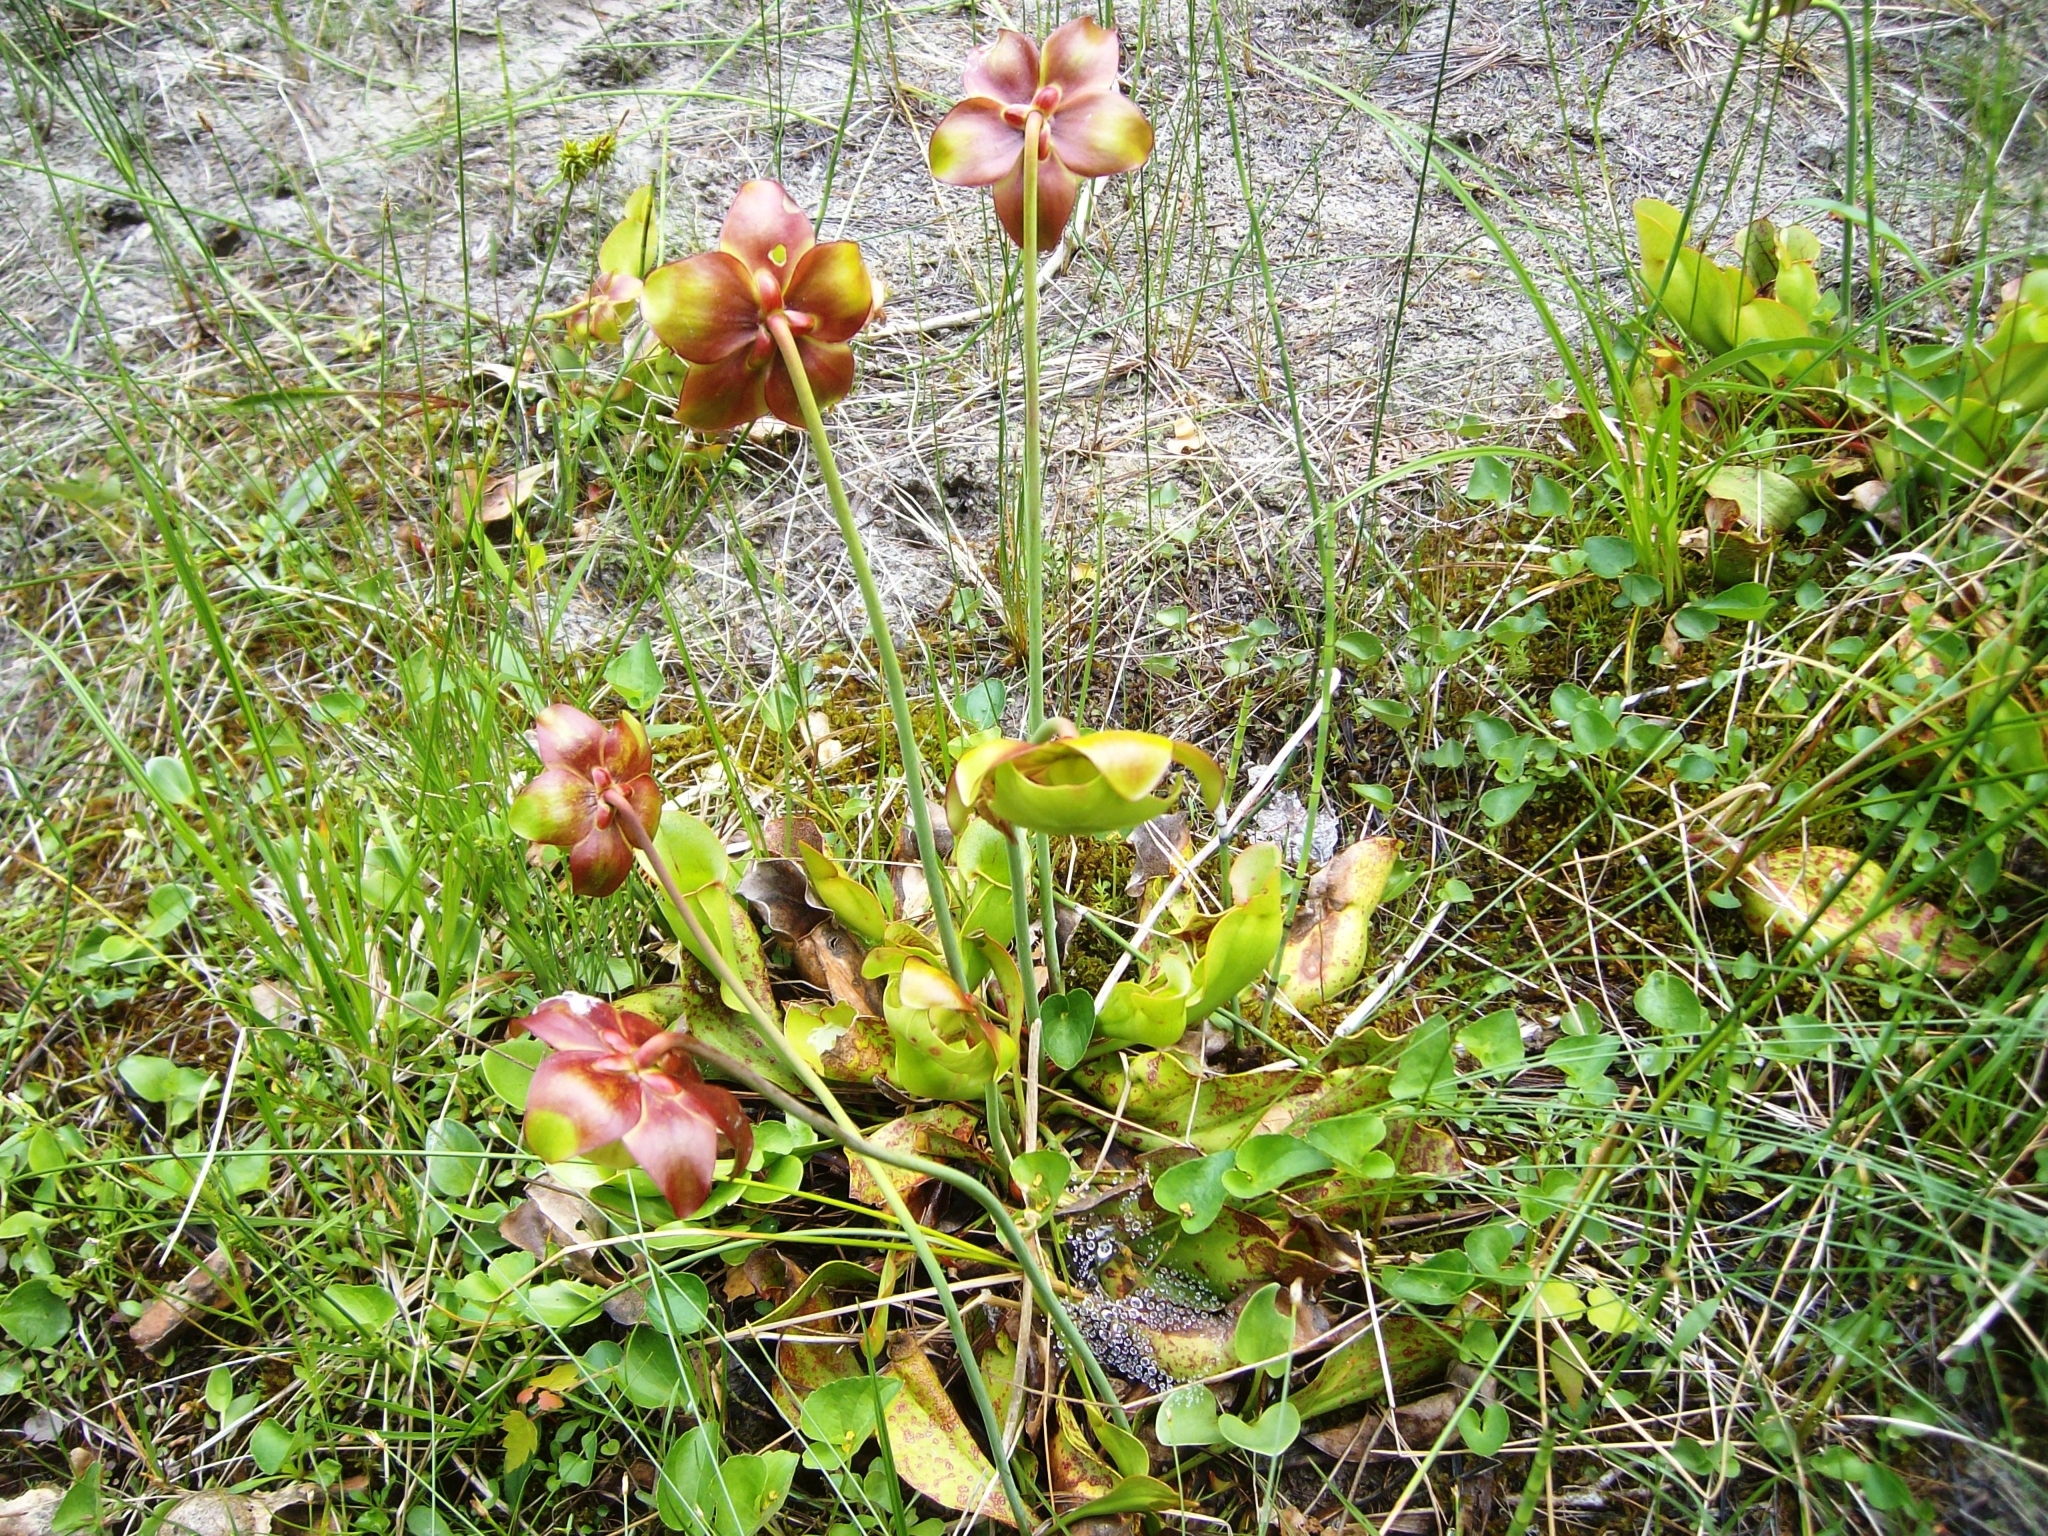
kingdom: Plantae
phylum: Tracheophyta
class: Magnoliopsida
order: Ericales
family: Sarraceniaceae
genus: Sarracenia
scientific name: Sarracenia purpurea
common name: Pitcherplant
